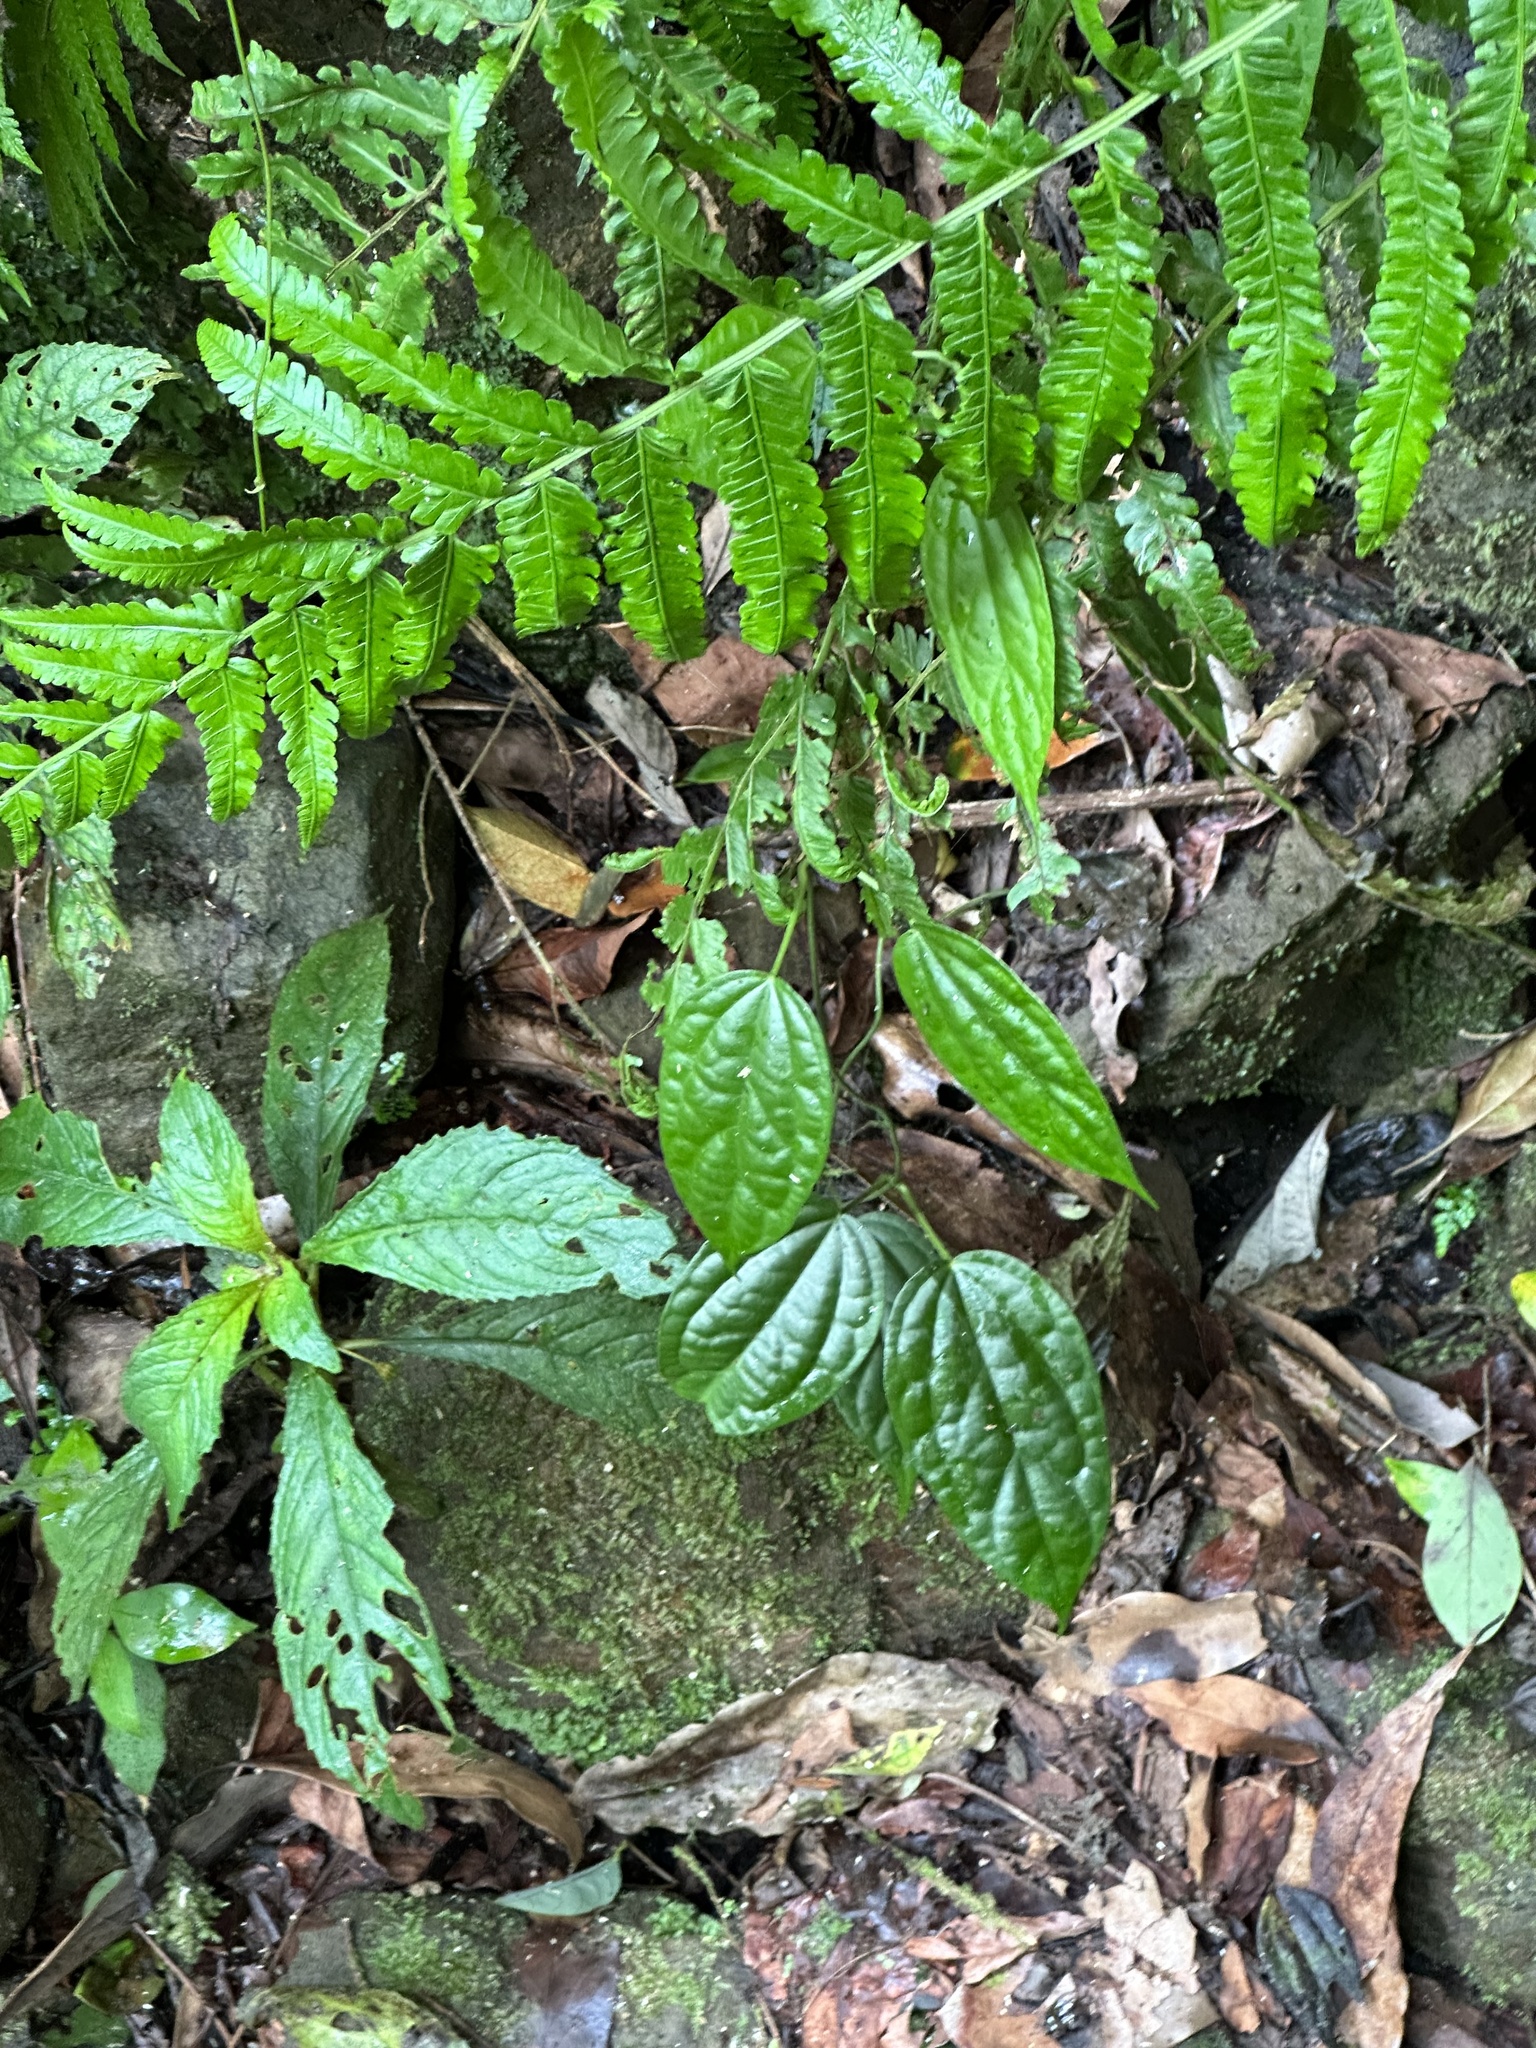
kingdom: Plantae
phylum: Tracheophyta
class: Magnoliopsida
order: Gentianales
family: Apocynaceae
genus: Heterostemma
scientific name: Heterostemma brownii
